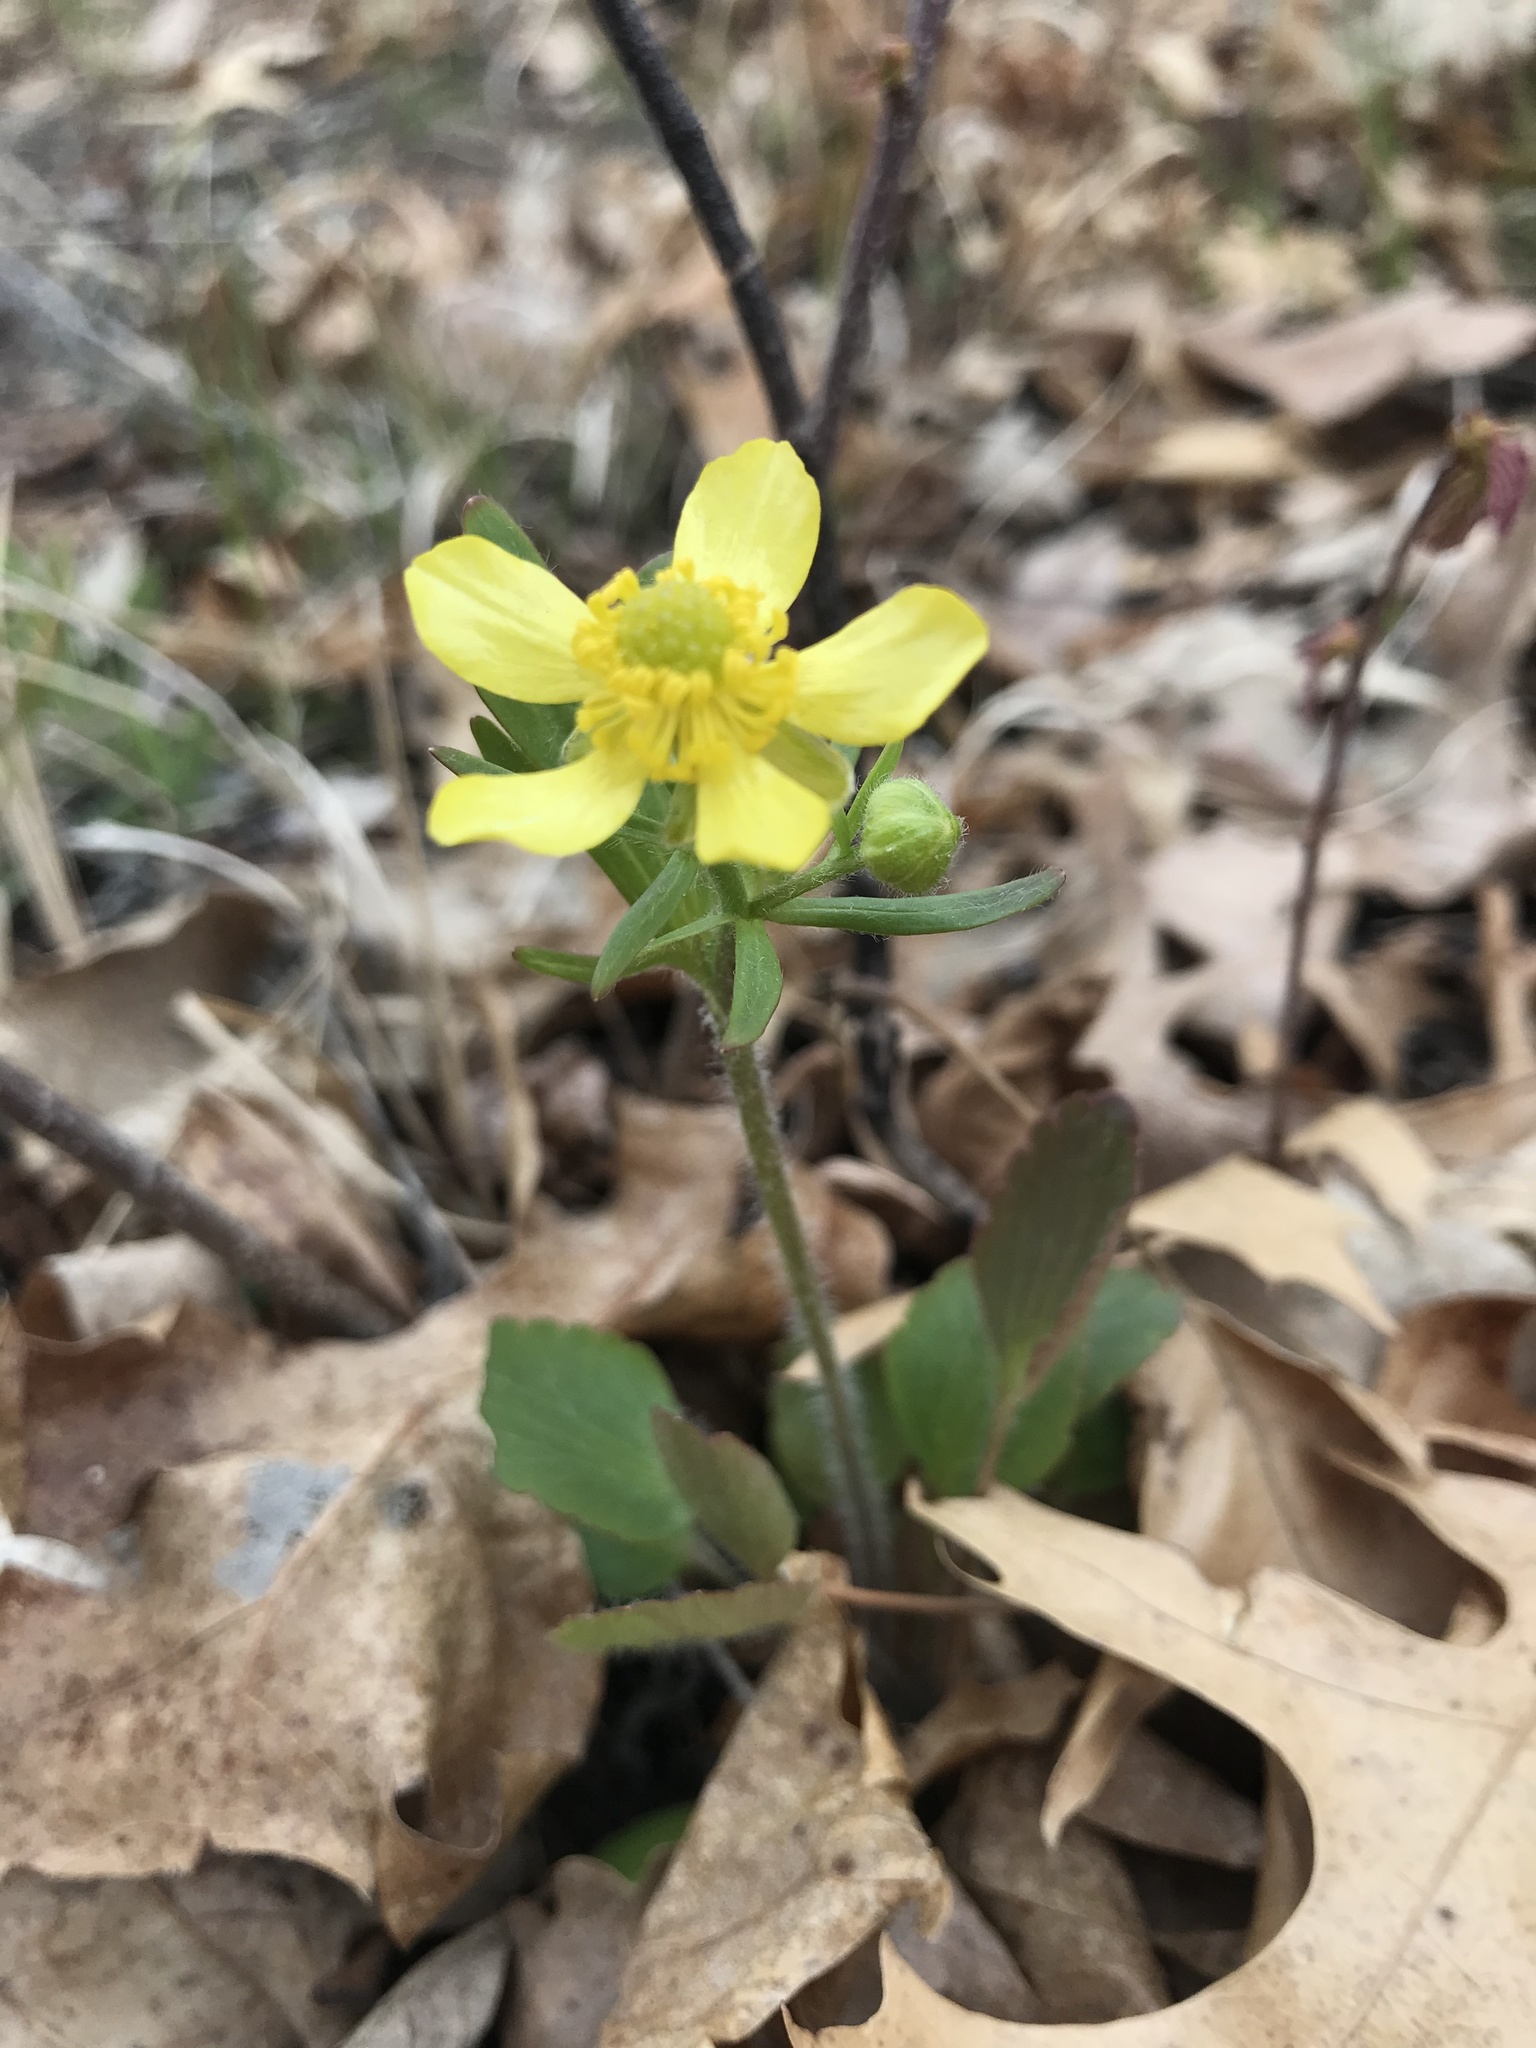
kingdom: Plantae
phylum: Tracheophyta
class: Magnoliopsida
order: Ranunculales
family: Ranunculaceae
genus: Ranunculus
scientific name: Ranunculus rhomboideus
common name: Prairie buttercup
